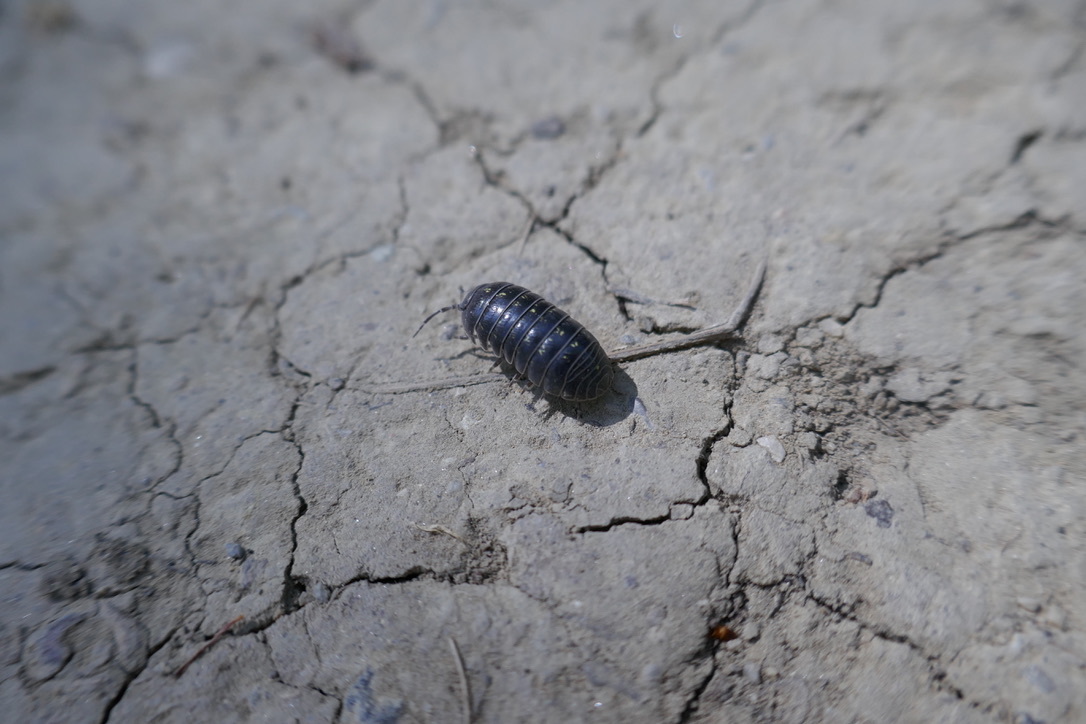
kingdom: Animalia
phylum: Arthropoda
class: Malacostraca
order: Isopoda
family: Armadillidiidae
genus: Armadillidium
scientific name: Armadillidium vulgare
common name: Common pill woodlouse
